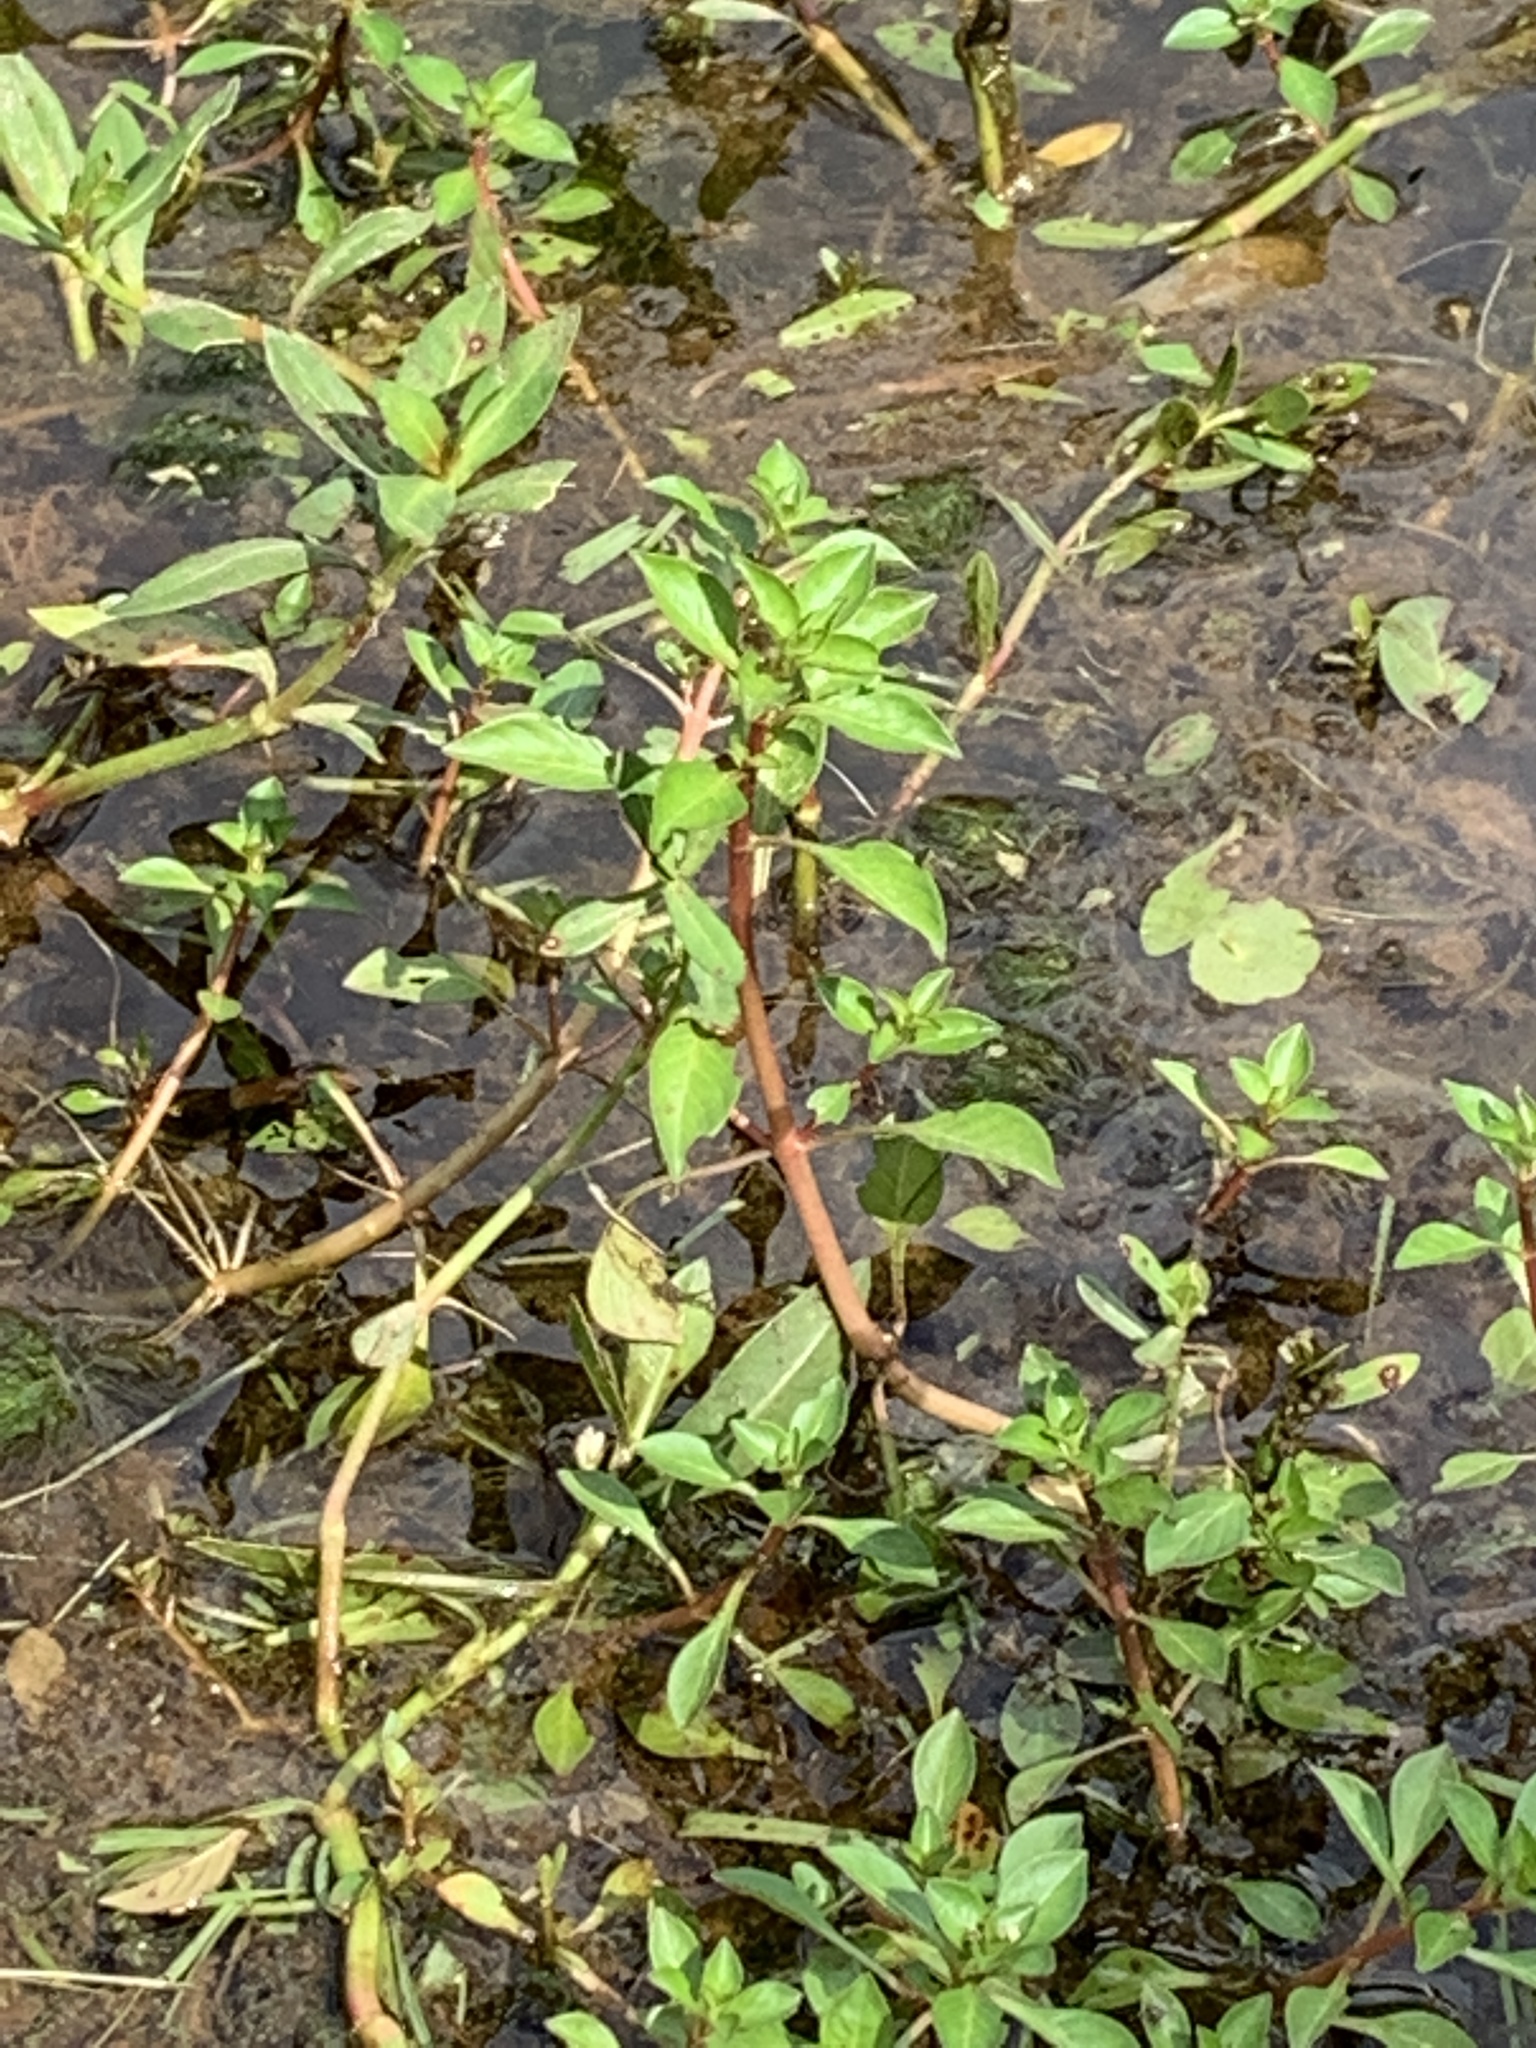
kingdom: Plantae
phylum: Tracheophyta
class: Magnoliopsida
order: Myrtales
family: Onagraceae
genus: Ludwigia
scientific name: Ludwigia palustris
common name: Hampshire-purslane
